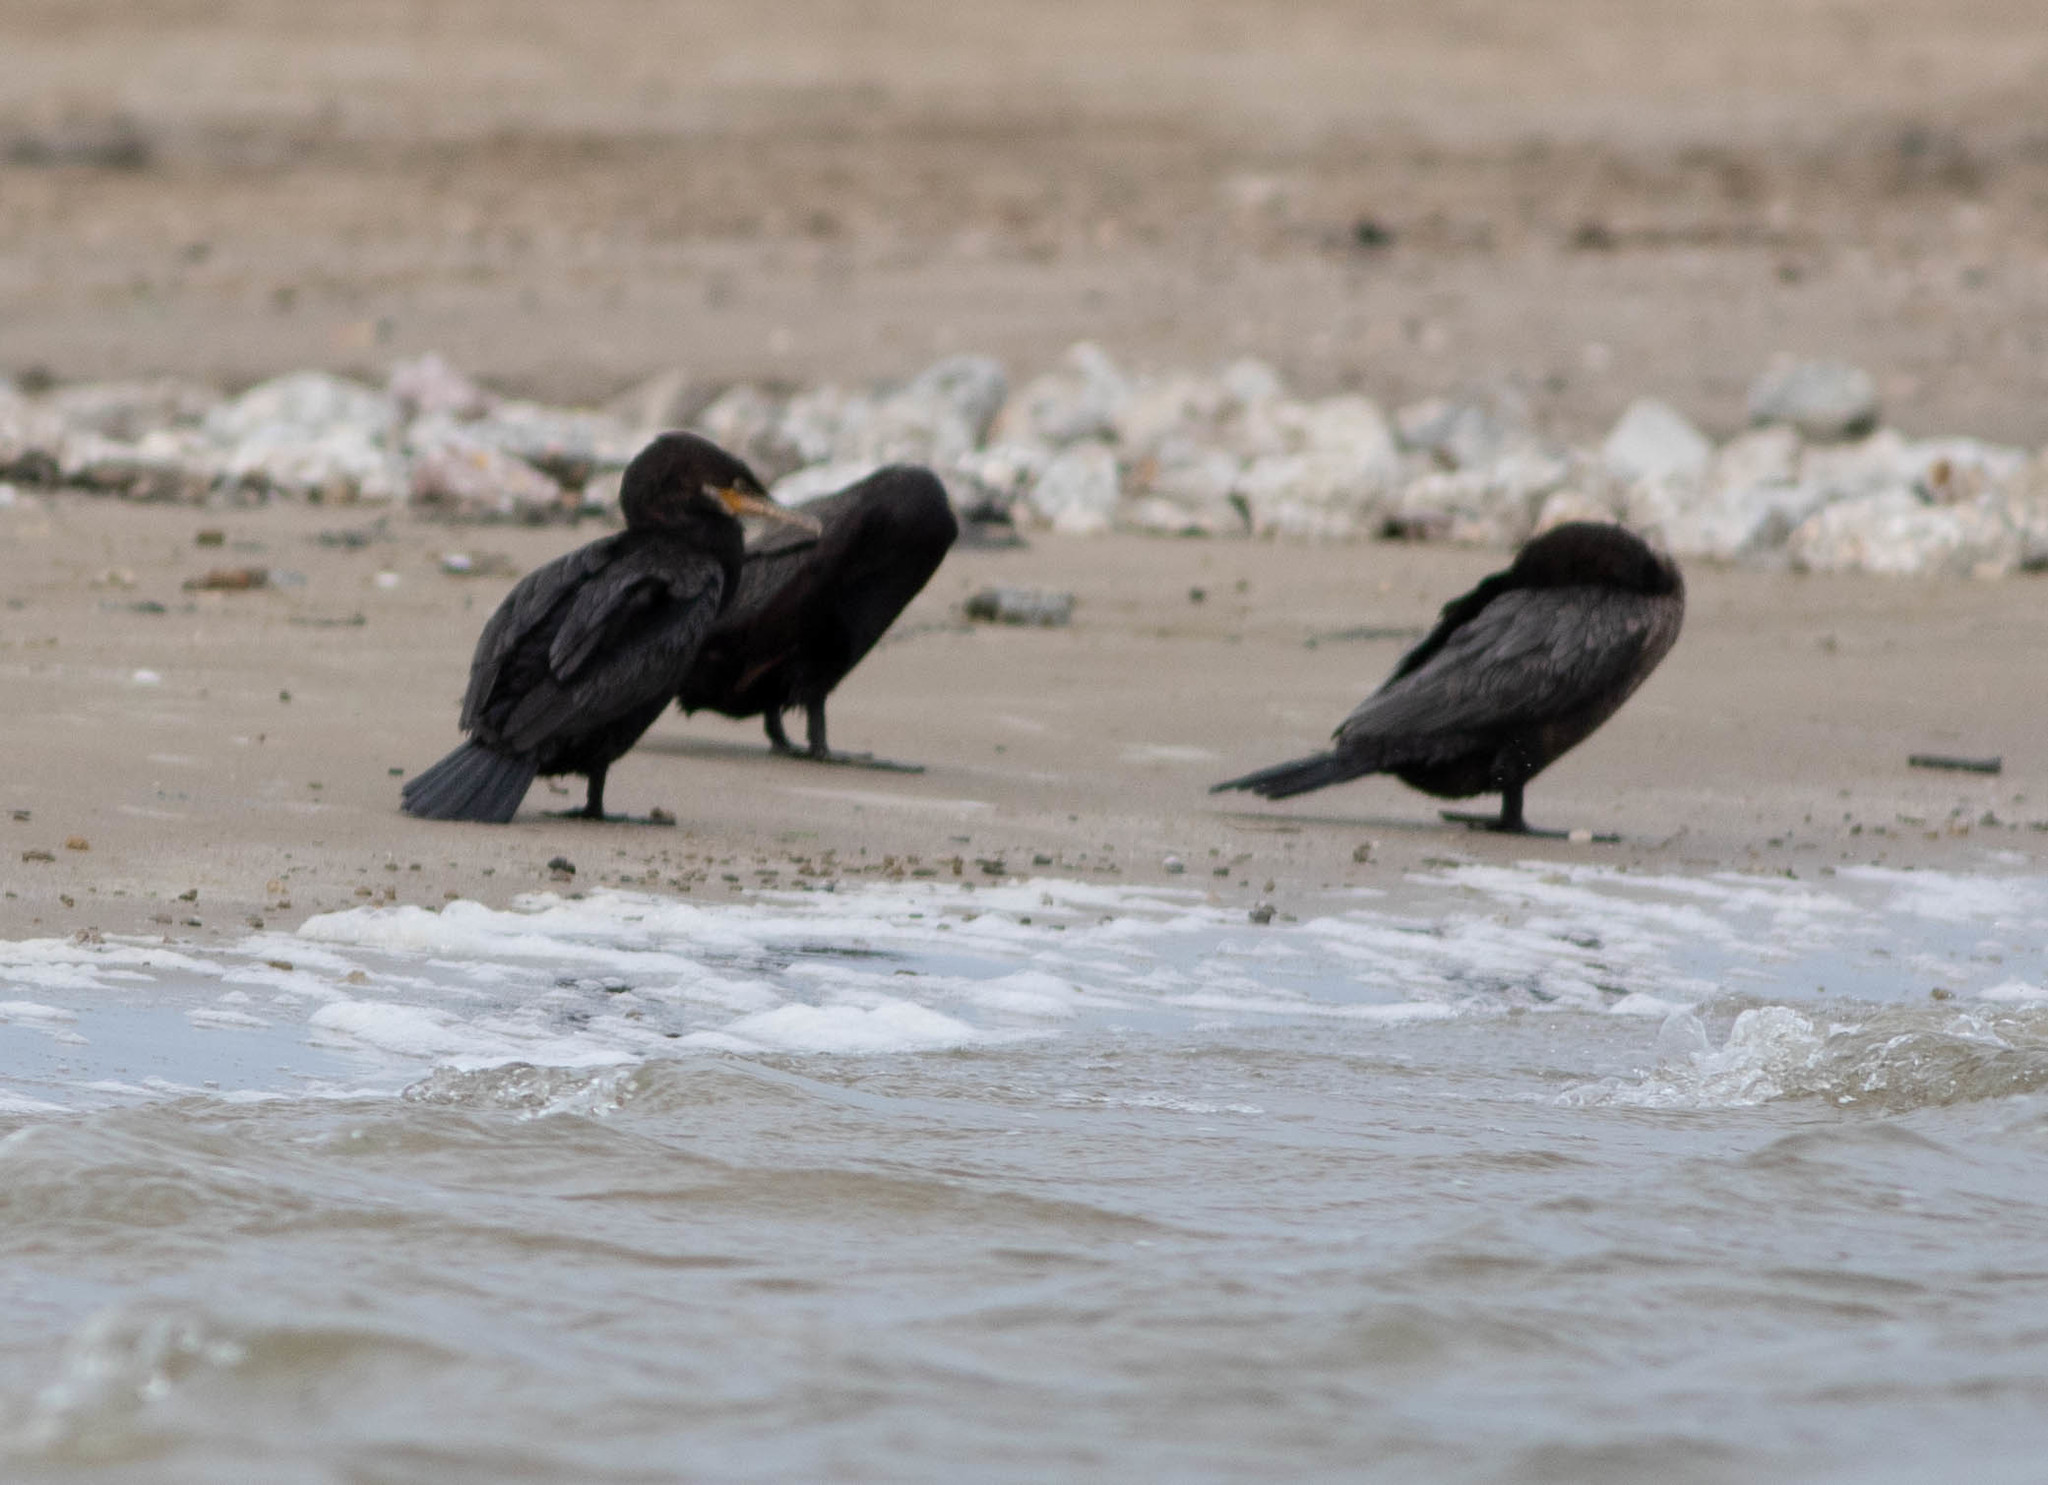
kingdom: Animalia
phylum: Chordata
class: Aves
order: Suliformes
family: Phalacrocoracidae
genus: Phalacrocorax
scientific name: Phalacrocorax brasilianus
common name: Neotropic cormorant
